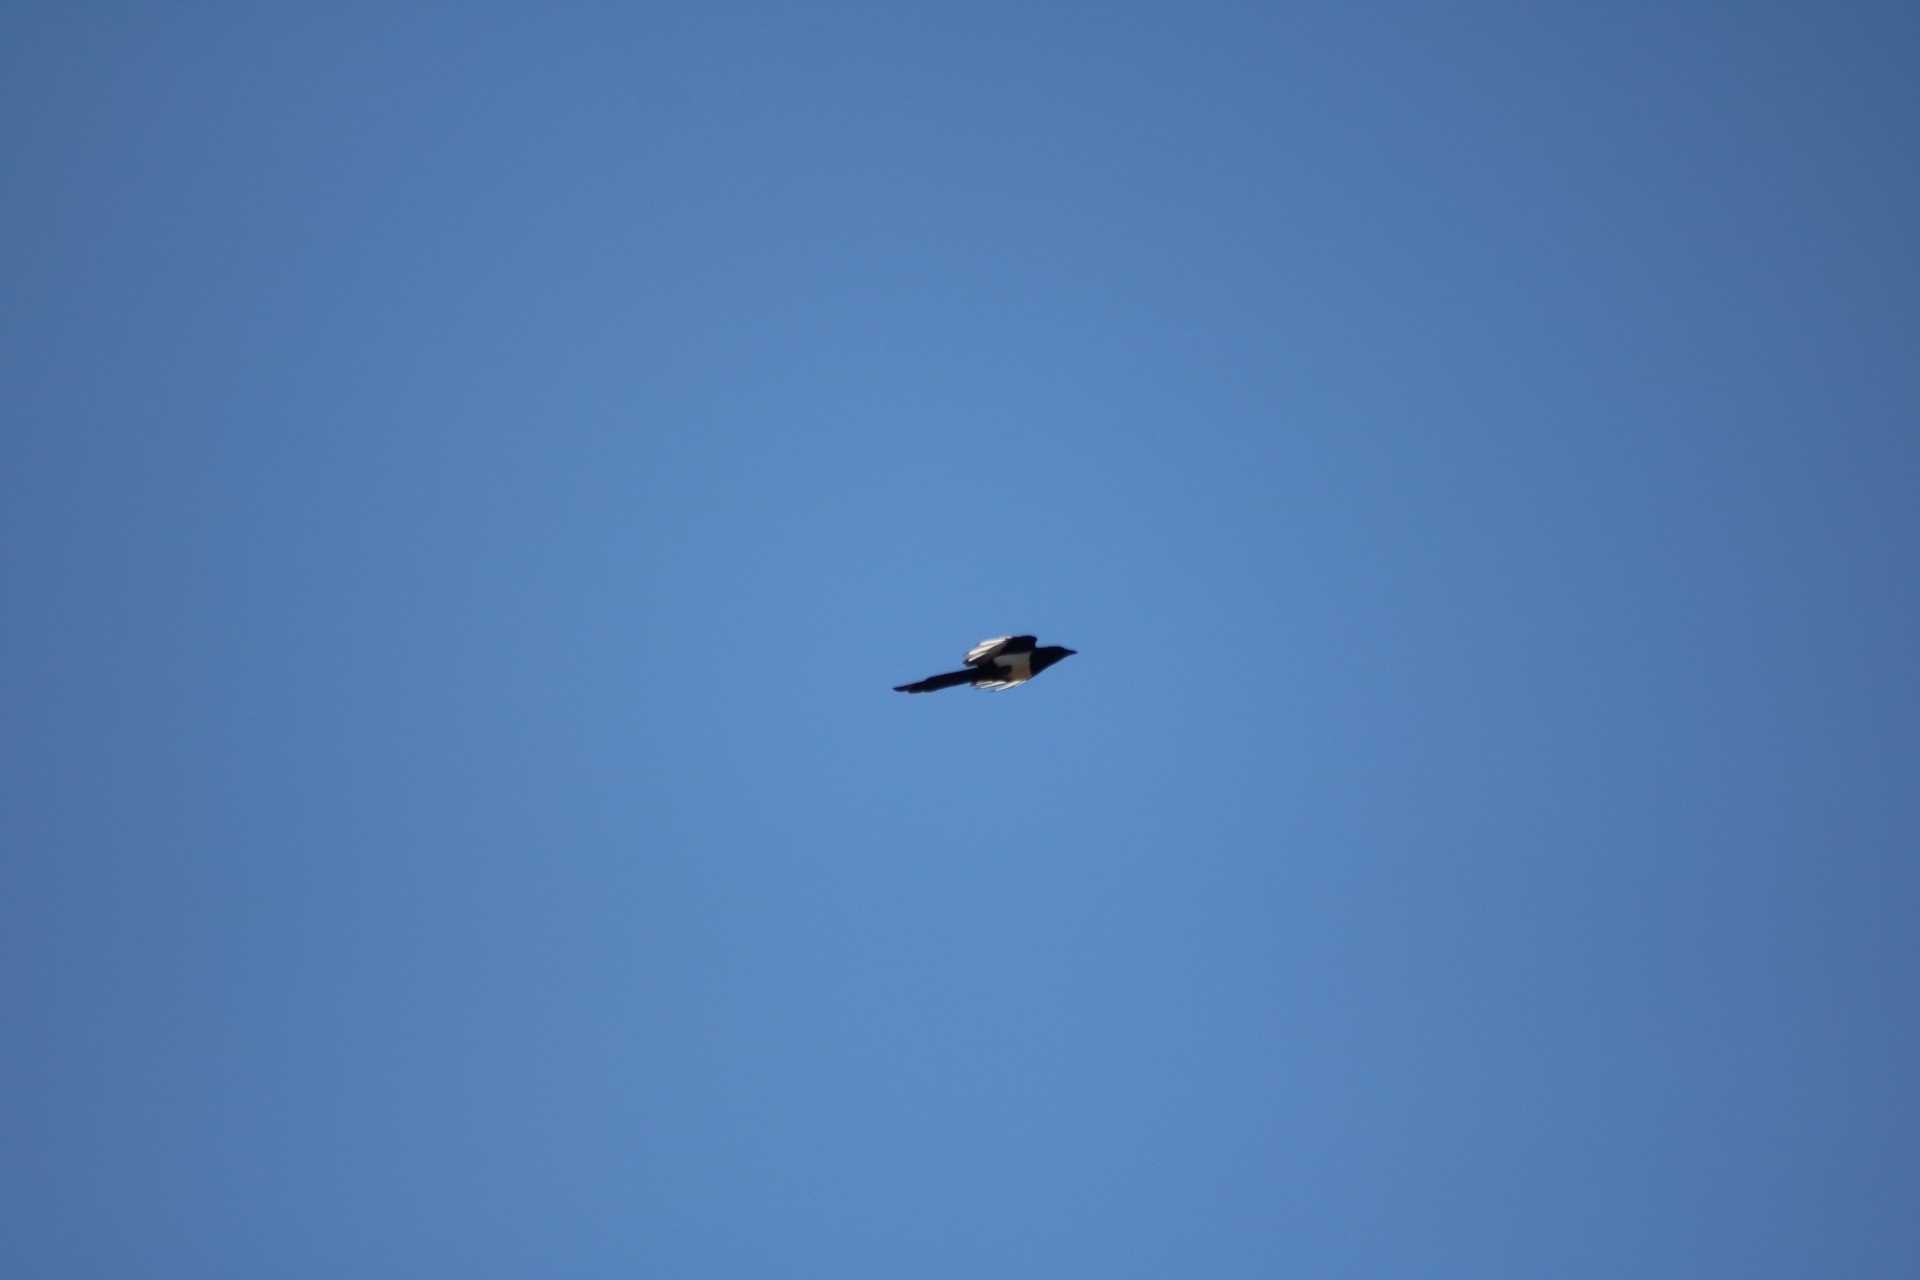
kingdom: Animalia
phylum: Chordata
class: Aves
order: Passeriformes
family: Corvidae
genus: Pica
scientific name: Pica pica
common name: Eurasian magpie
